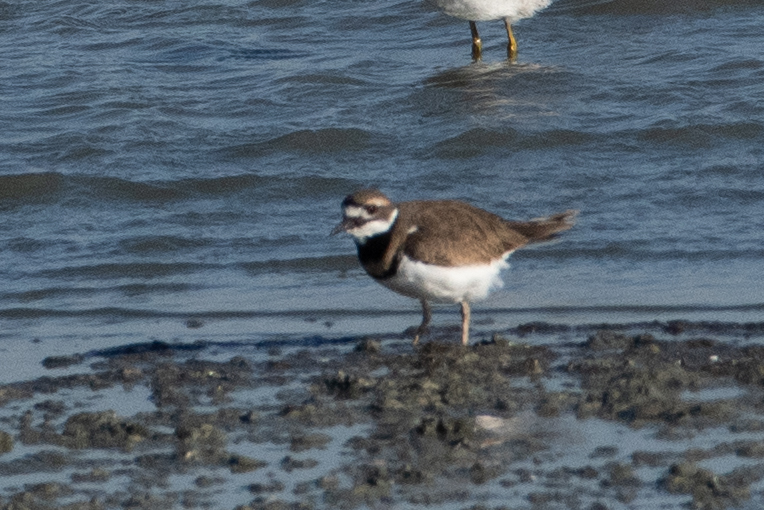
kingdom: Animalia
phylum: Chordata
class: Aves
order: Charadriiformes
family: Charadriidae
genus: Charadrius
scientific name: Charadrius vociferus
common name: Killdeer
